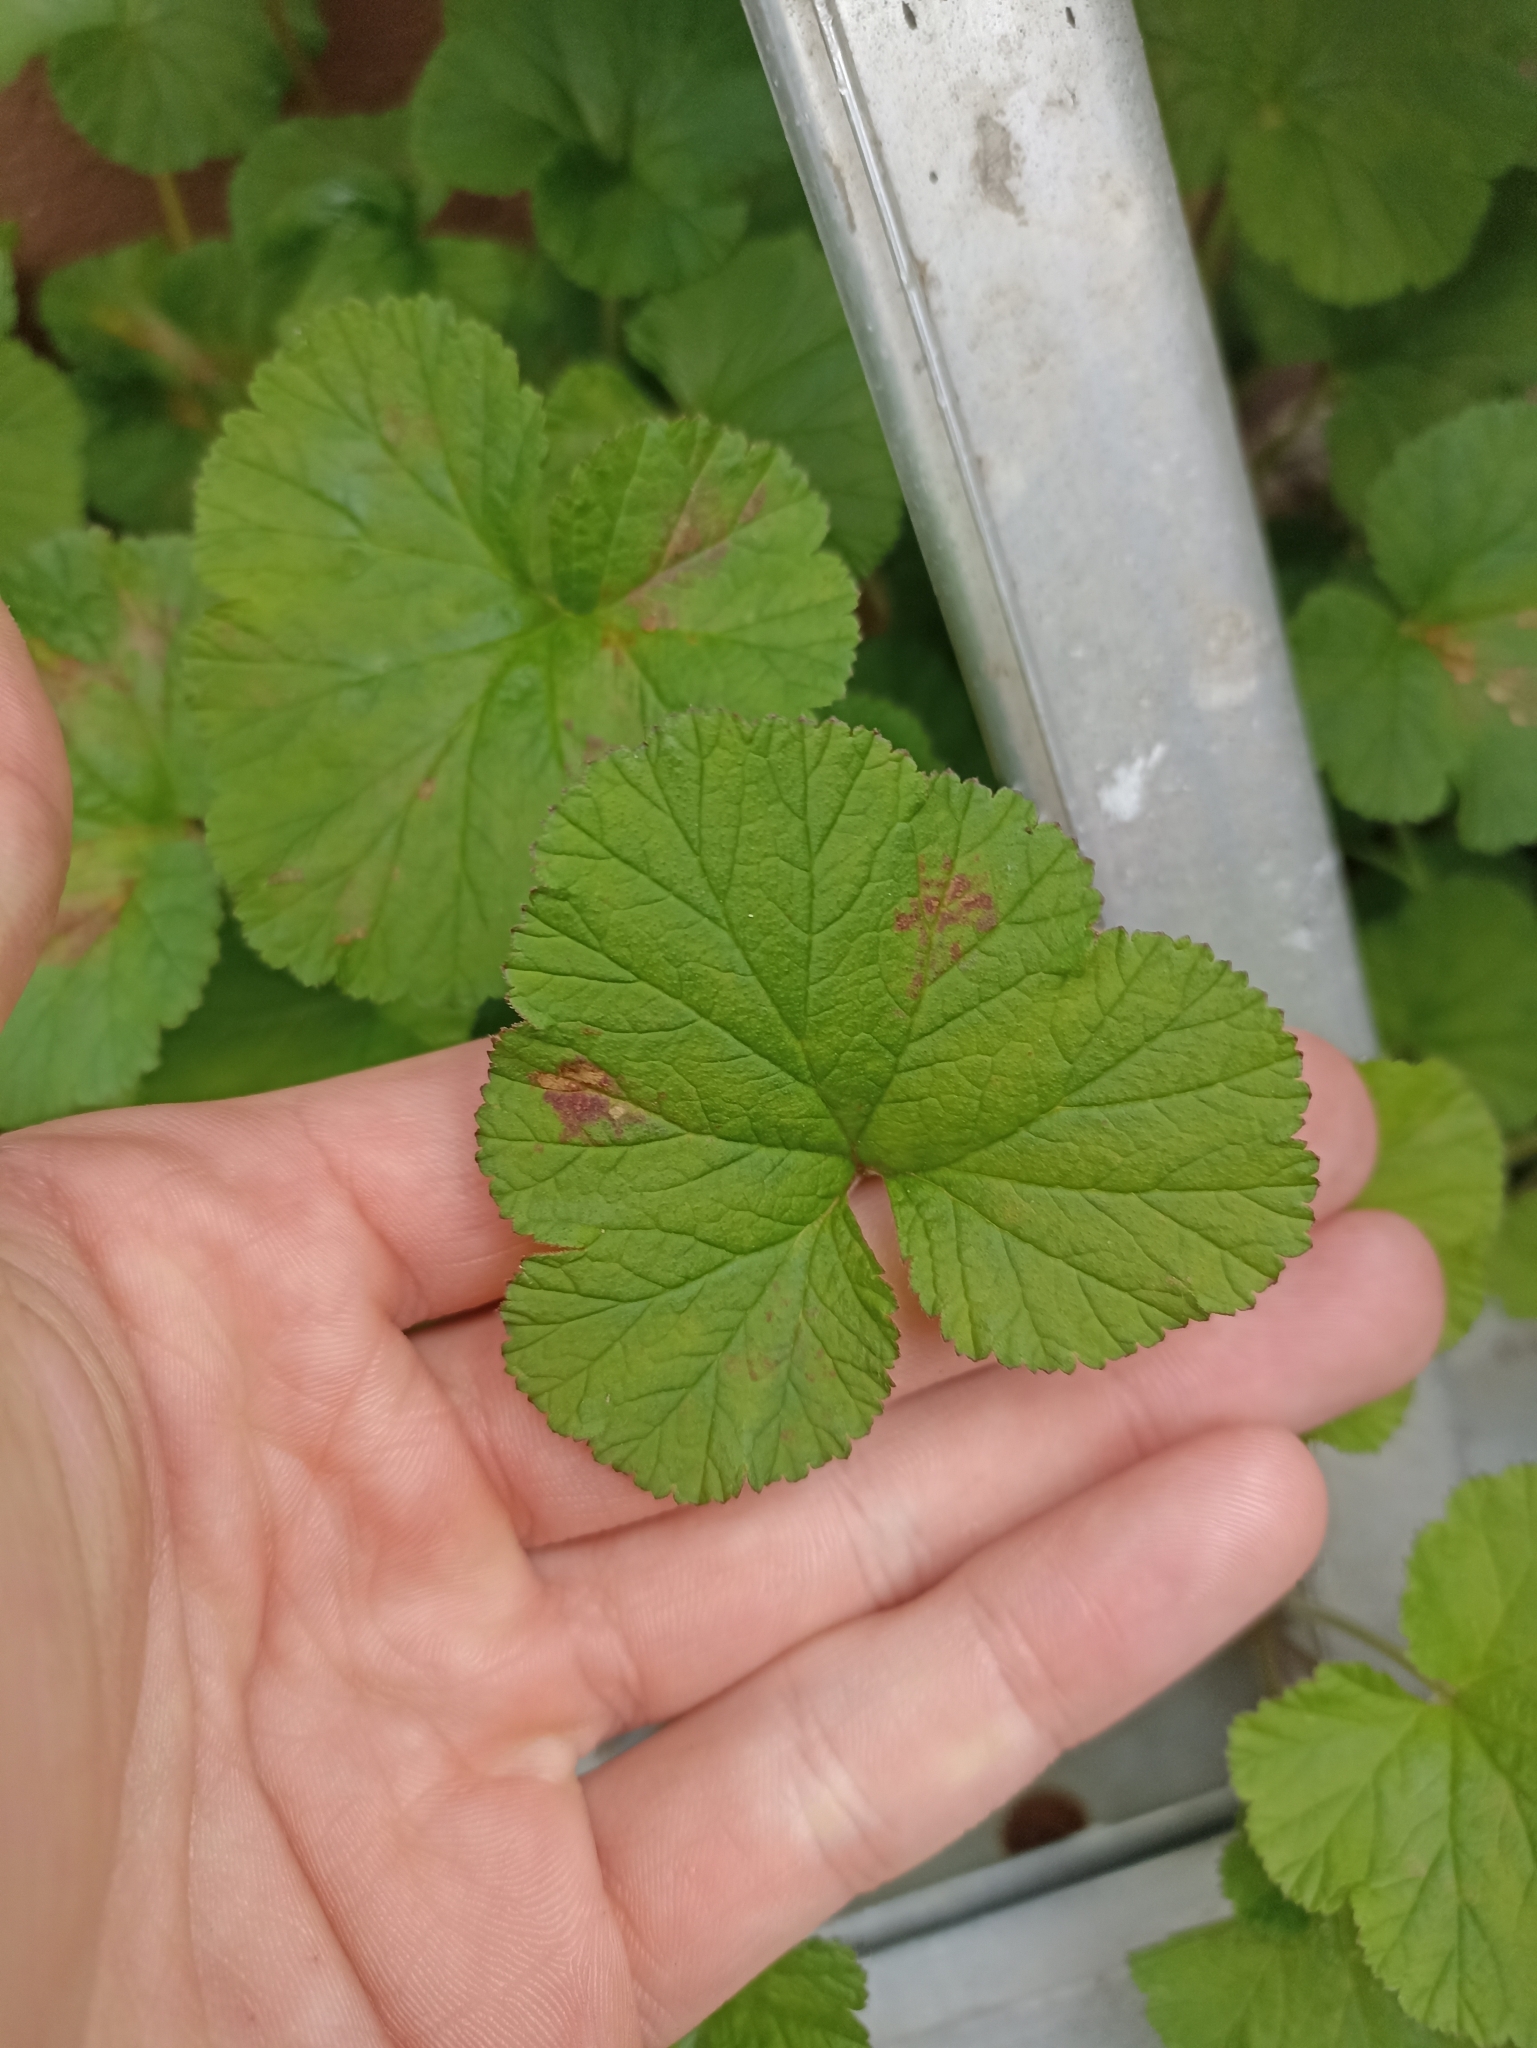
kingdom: Plantae
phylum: Tracheophyta
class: Magnoliopsida
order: Geraniales
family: Geraniaceae
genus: Pelargonium
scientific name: Pelargonium inodorum
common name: Kopata geranium
